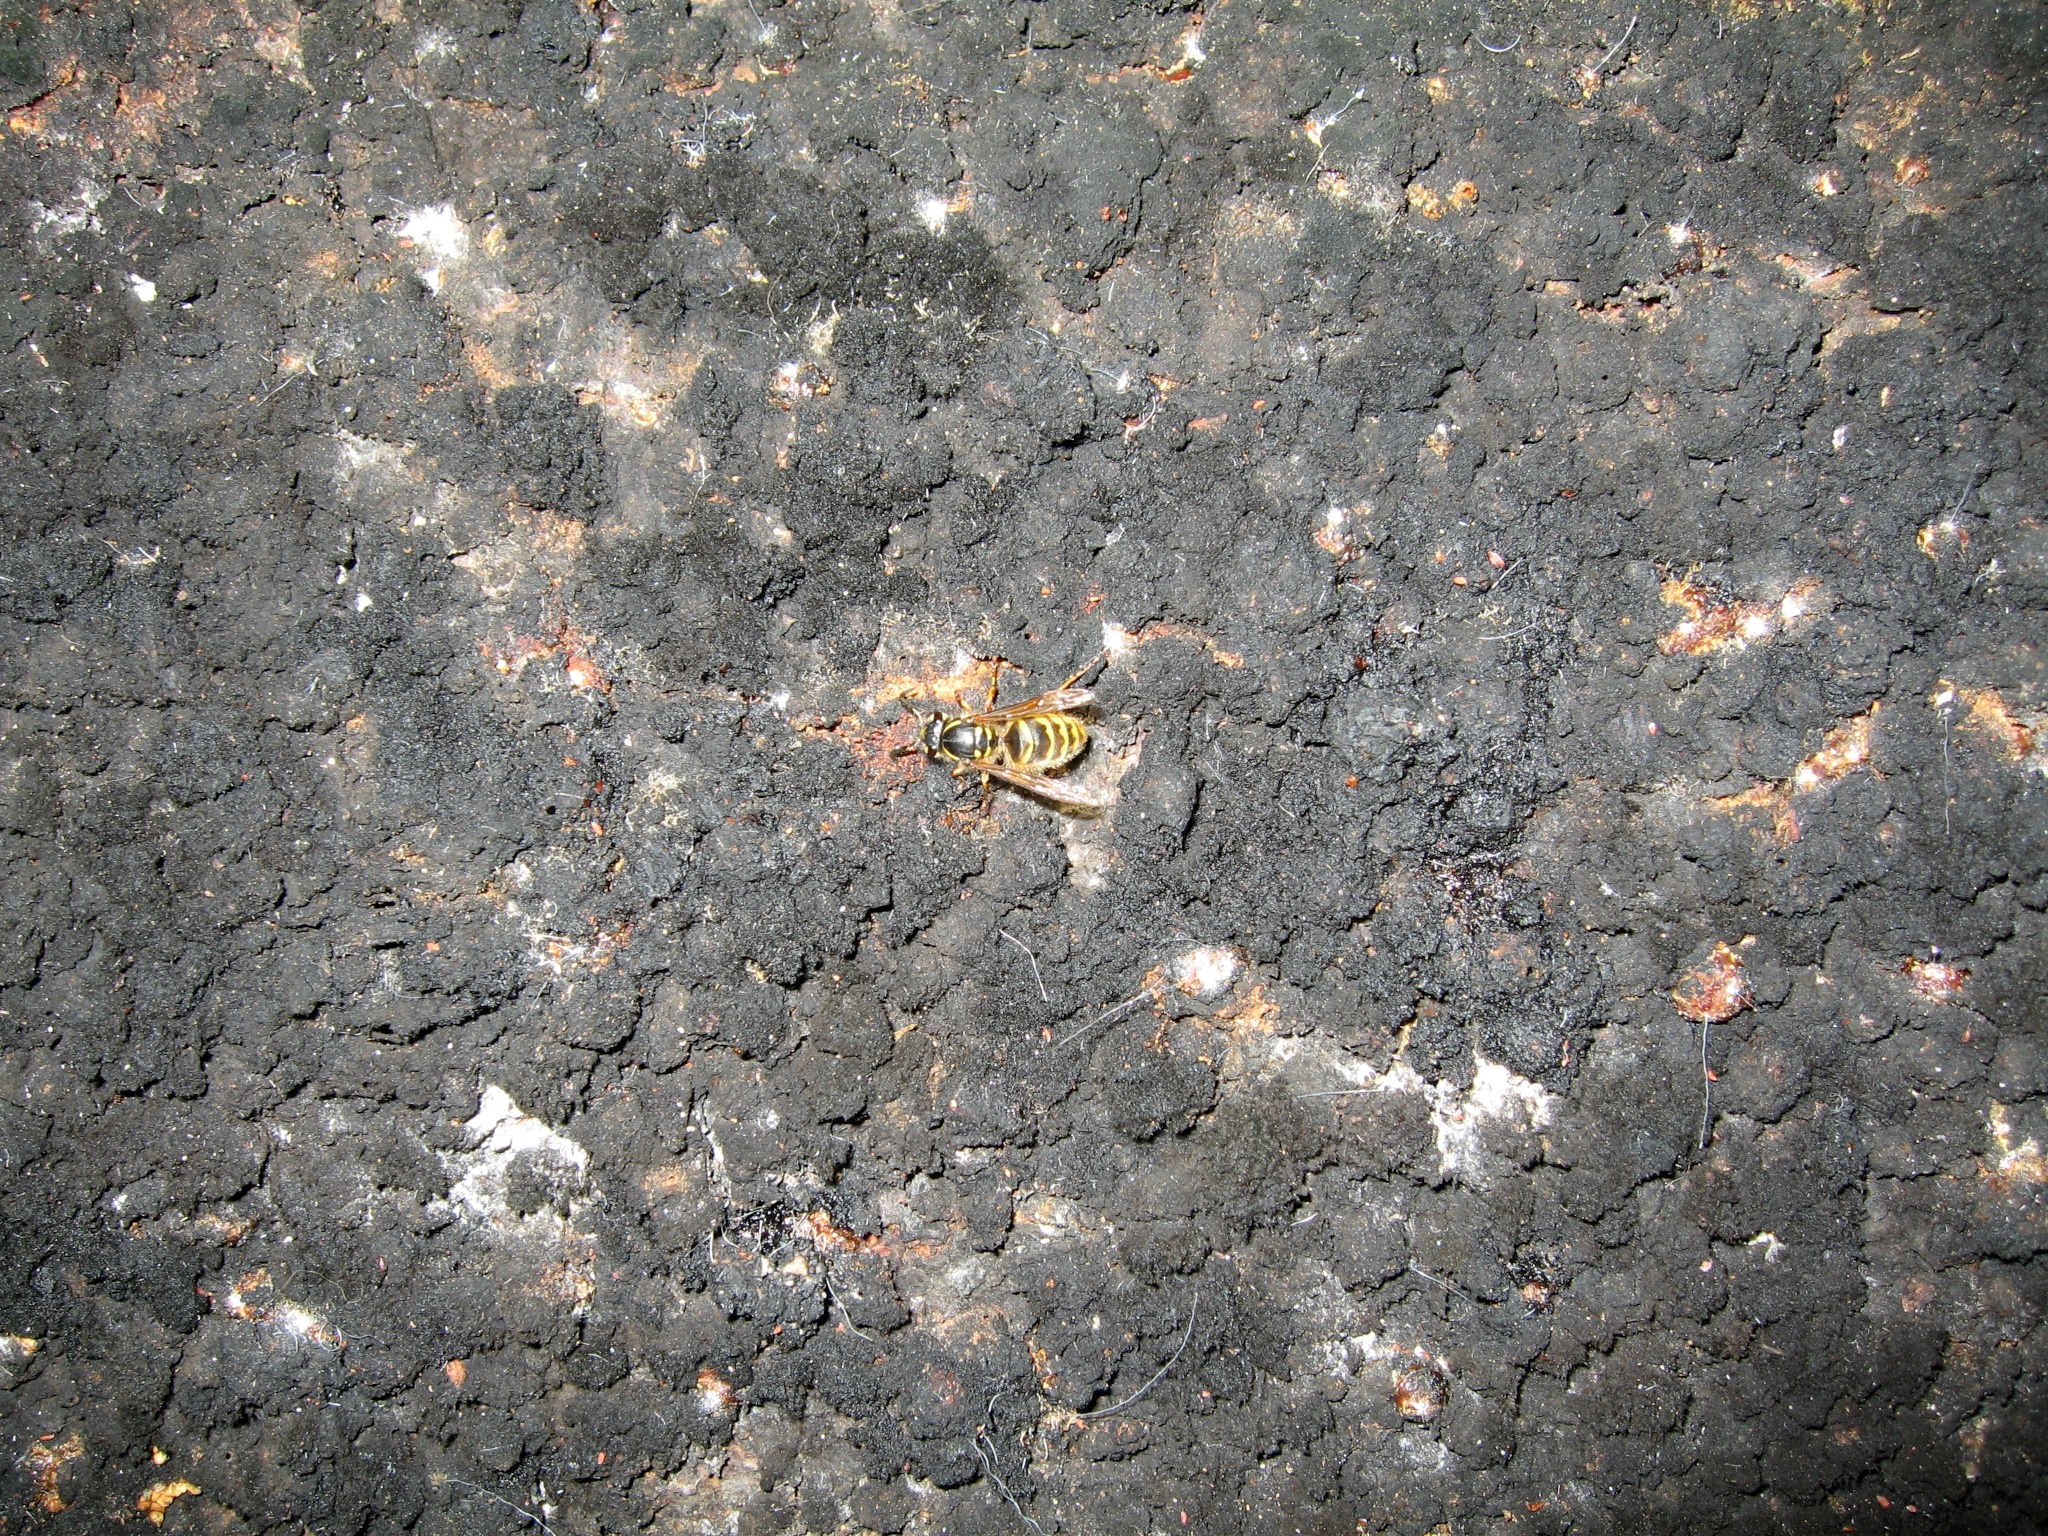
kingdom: Animalia
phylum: Arthropoda
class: Insecta
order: Hymenoptera
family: Vespidae
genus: Vespula
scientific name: Vespula vulgaris
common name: Common wasp
